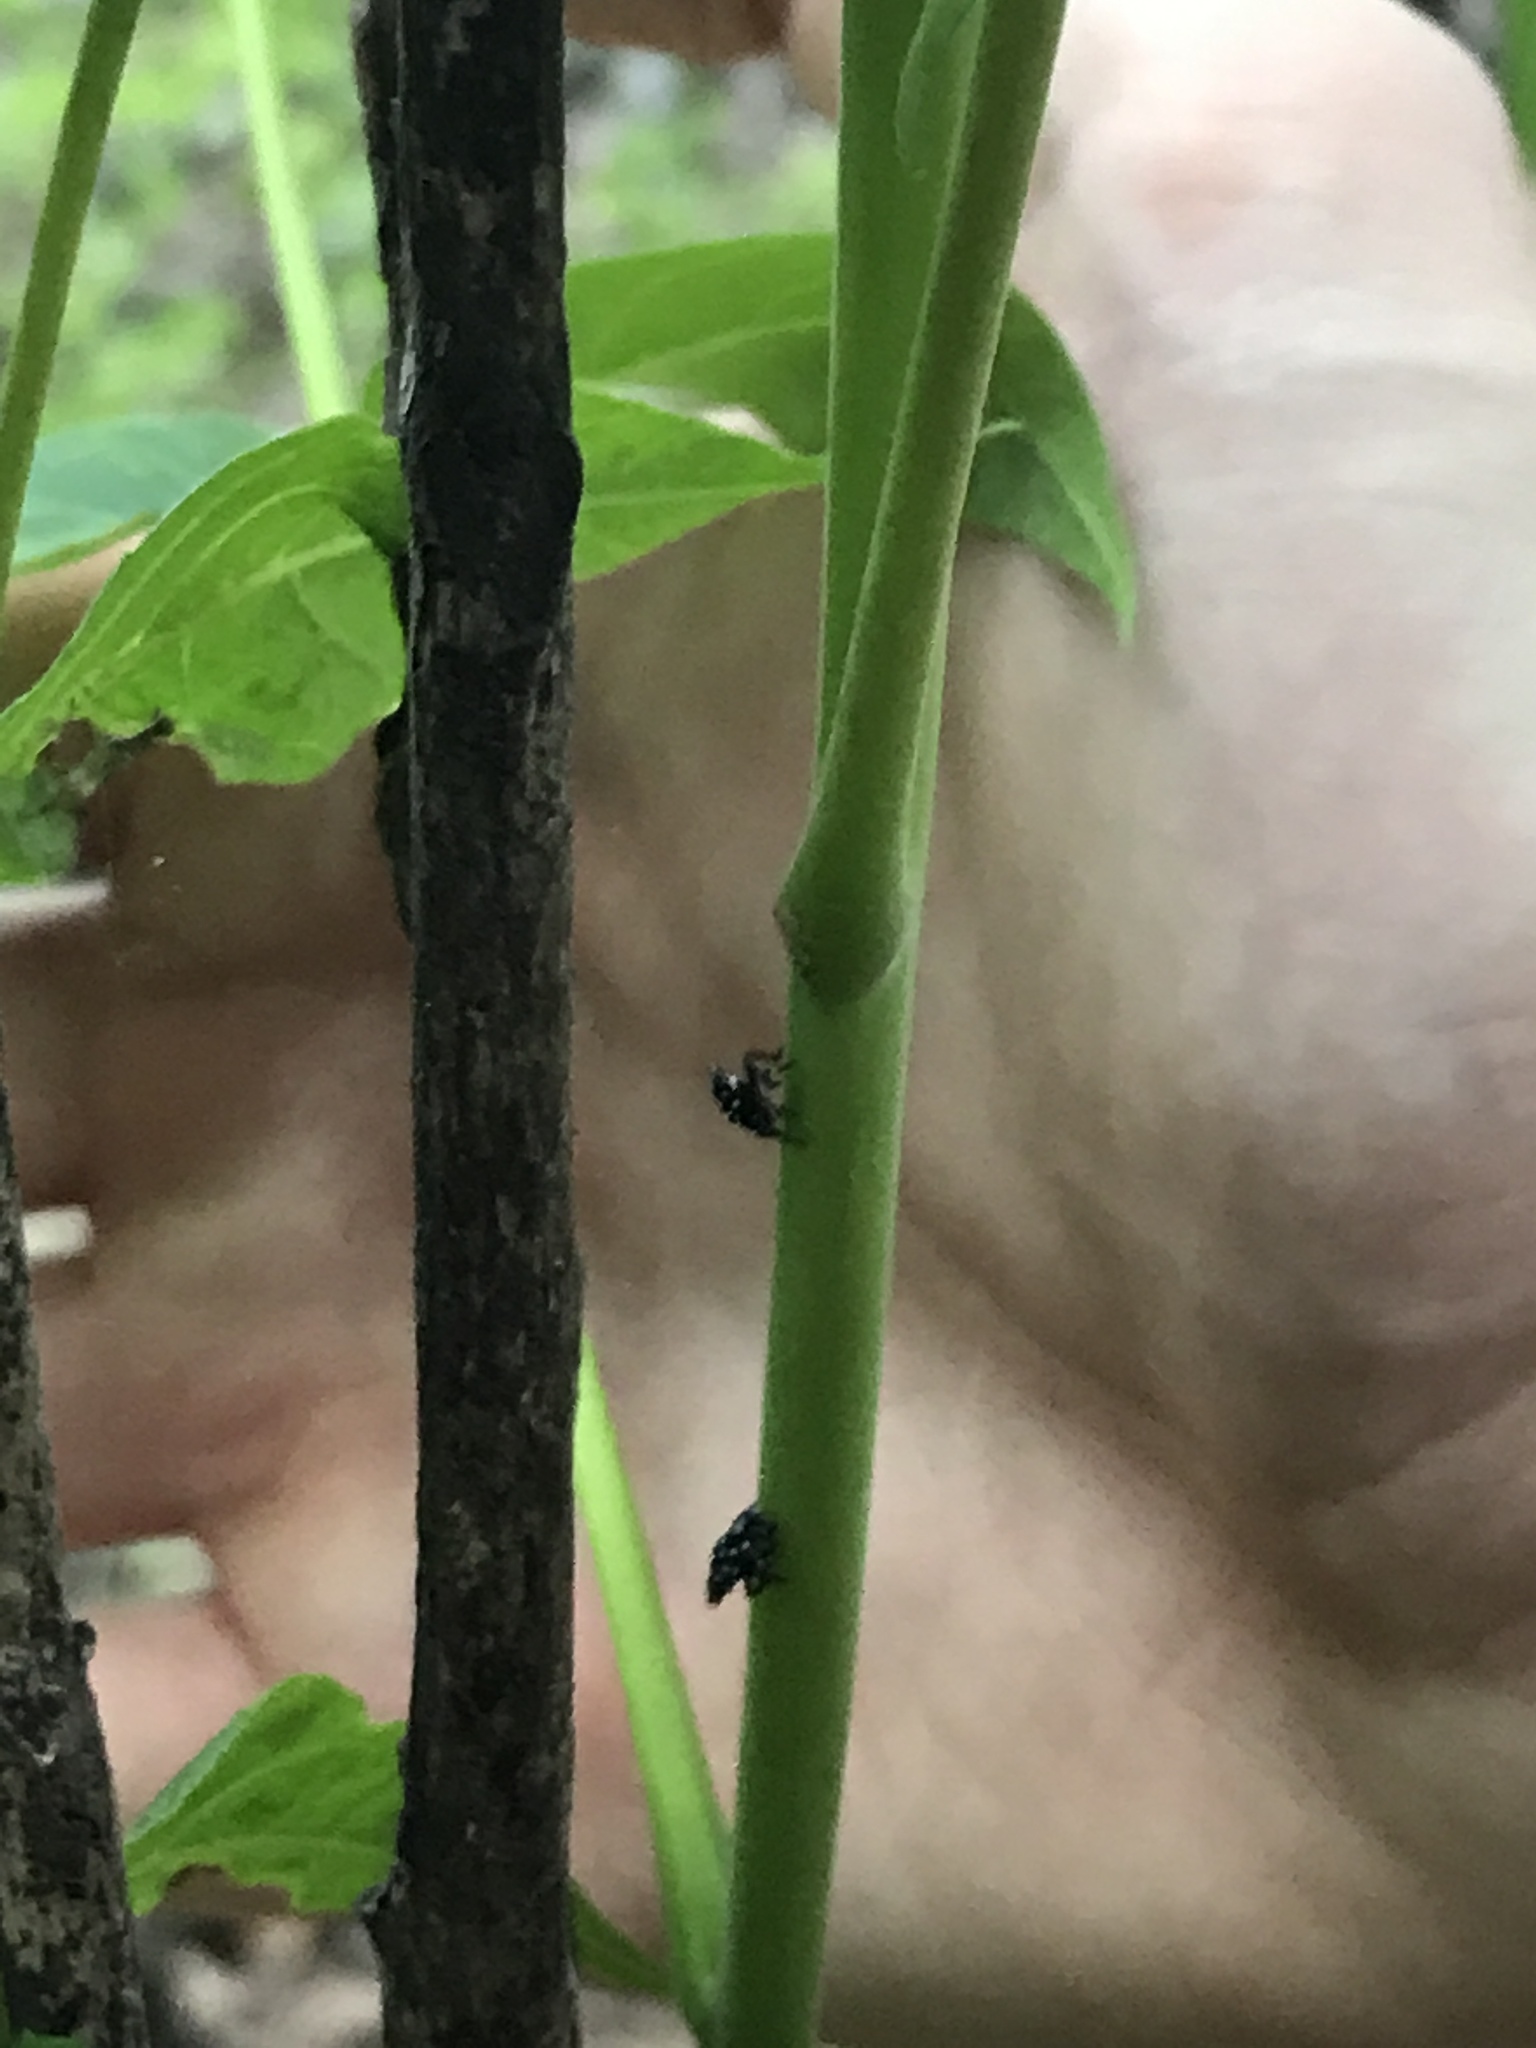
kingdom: Animalia
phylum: Arthropoda
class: Insecta
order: Hemiptera
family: Fulgoridae
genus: Lycorma
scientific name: Lycorma delicatula
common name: Spotted lanternfly
